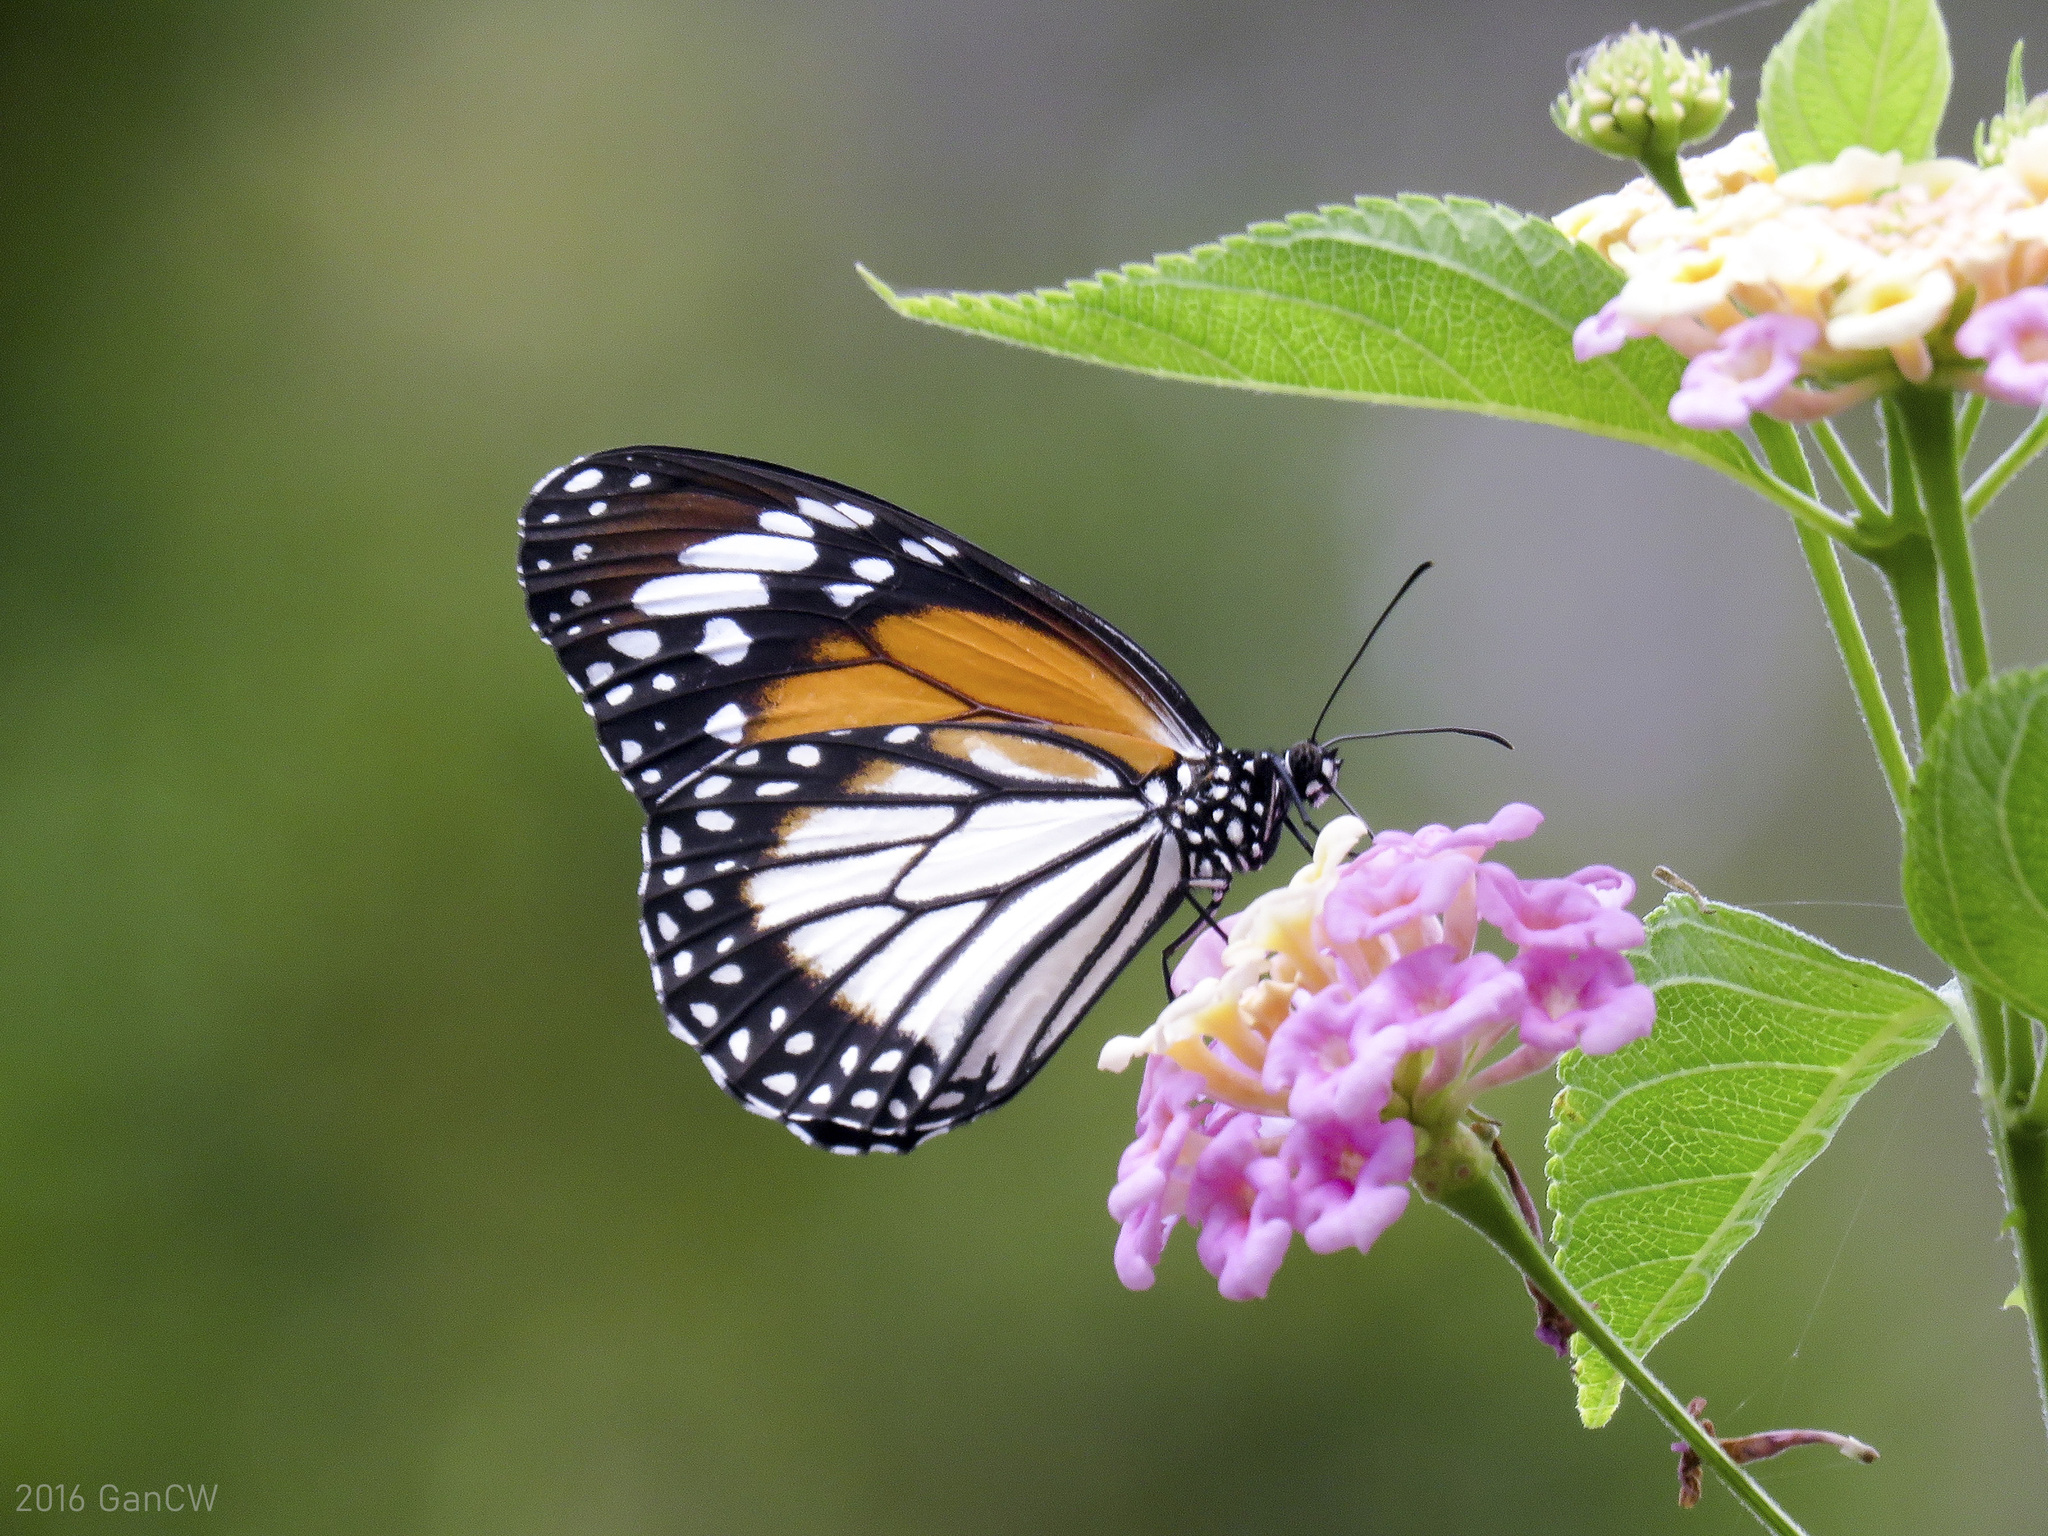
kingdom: Animalia
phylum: Arthropoda
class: Insecta
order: Lepidoptera
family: Nymphalidae
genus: Danaus
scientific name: Danaus melanippus
